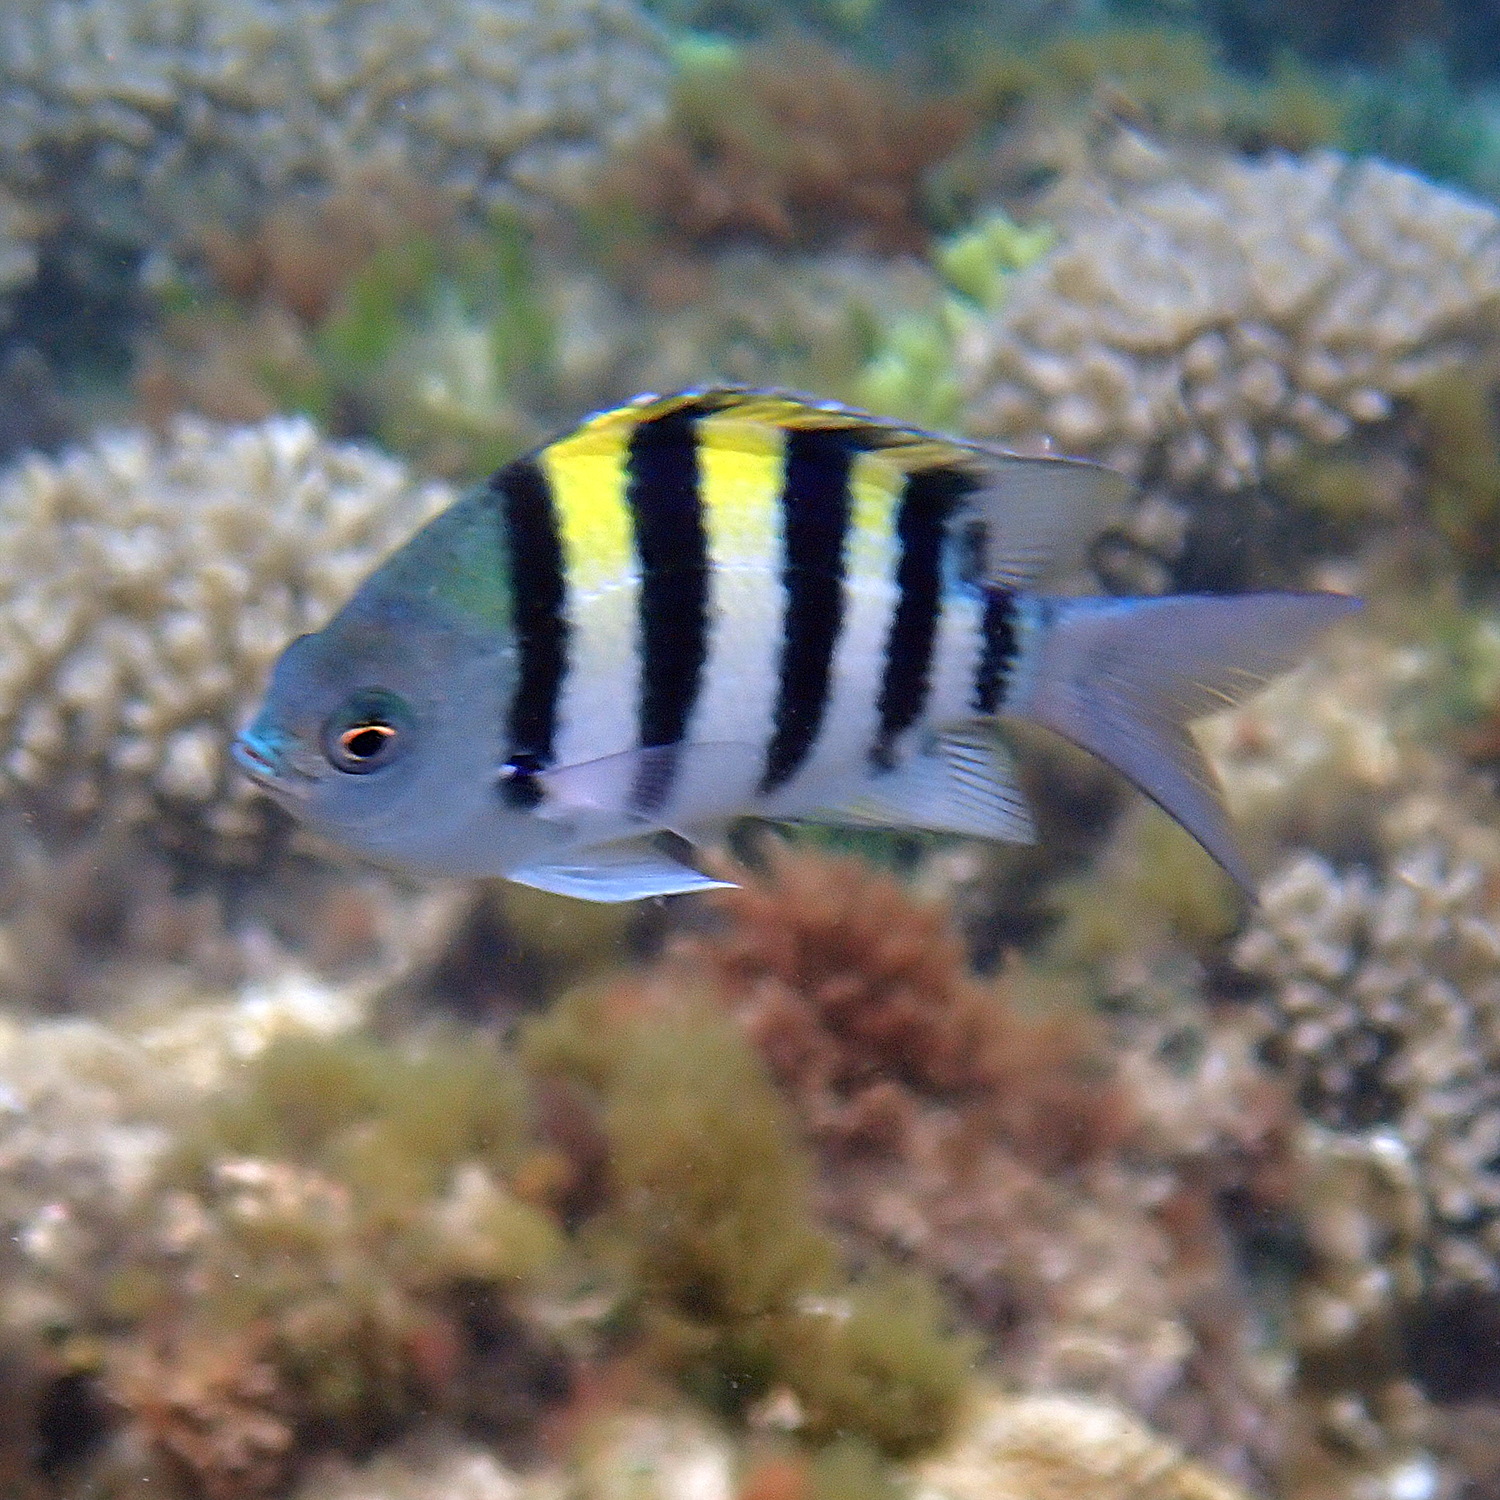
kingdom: Animalia
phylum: Chordata
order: Perciformes
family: Pomacentridae
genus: Abudefduf
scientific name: Abudefduf vaigiensis
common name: Indo-pacific sergeant
